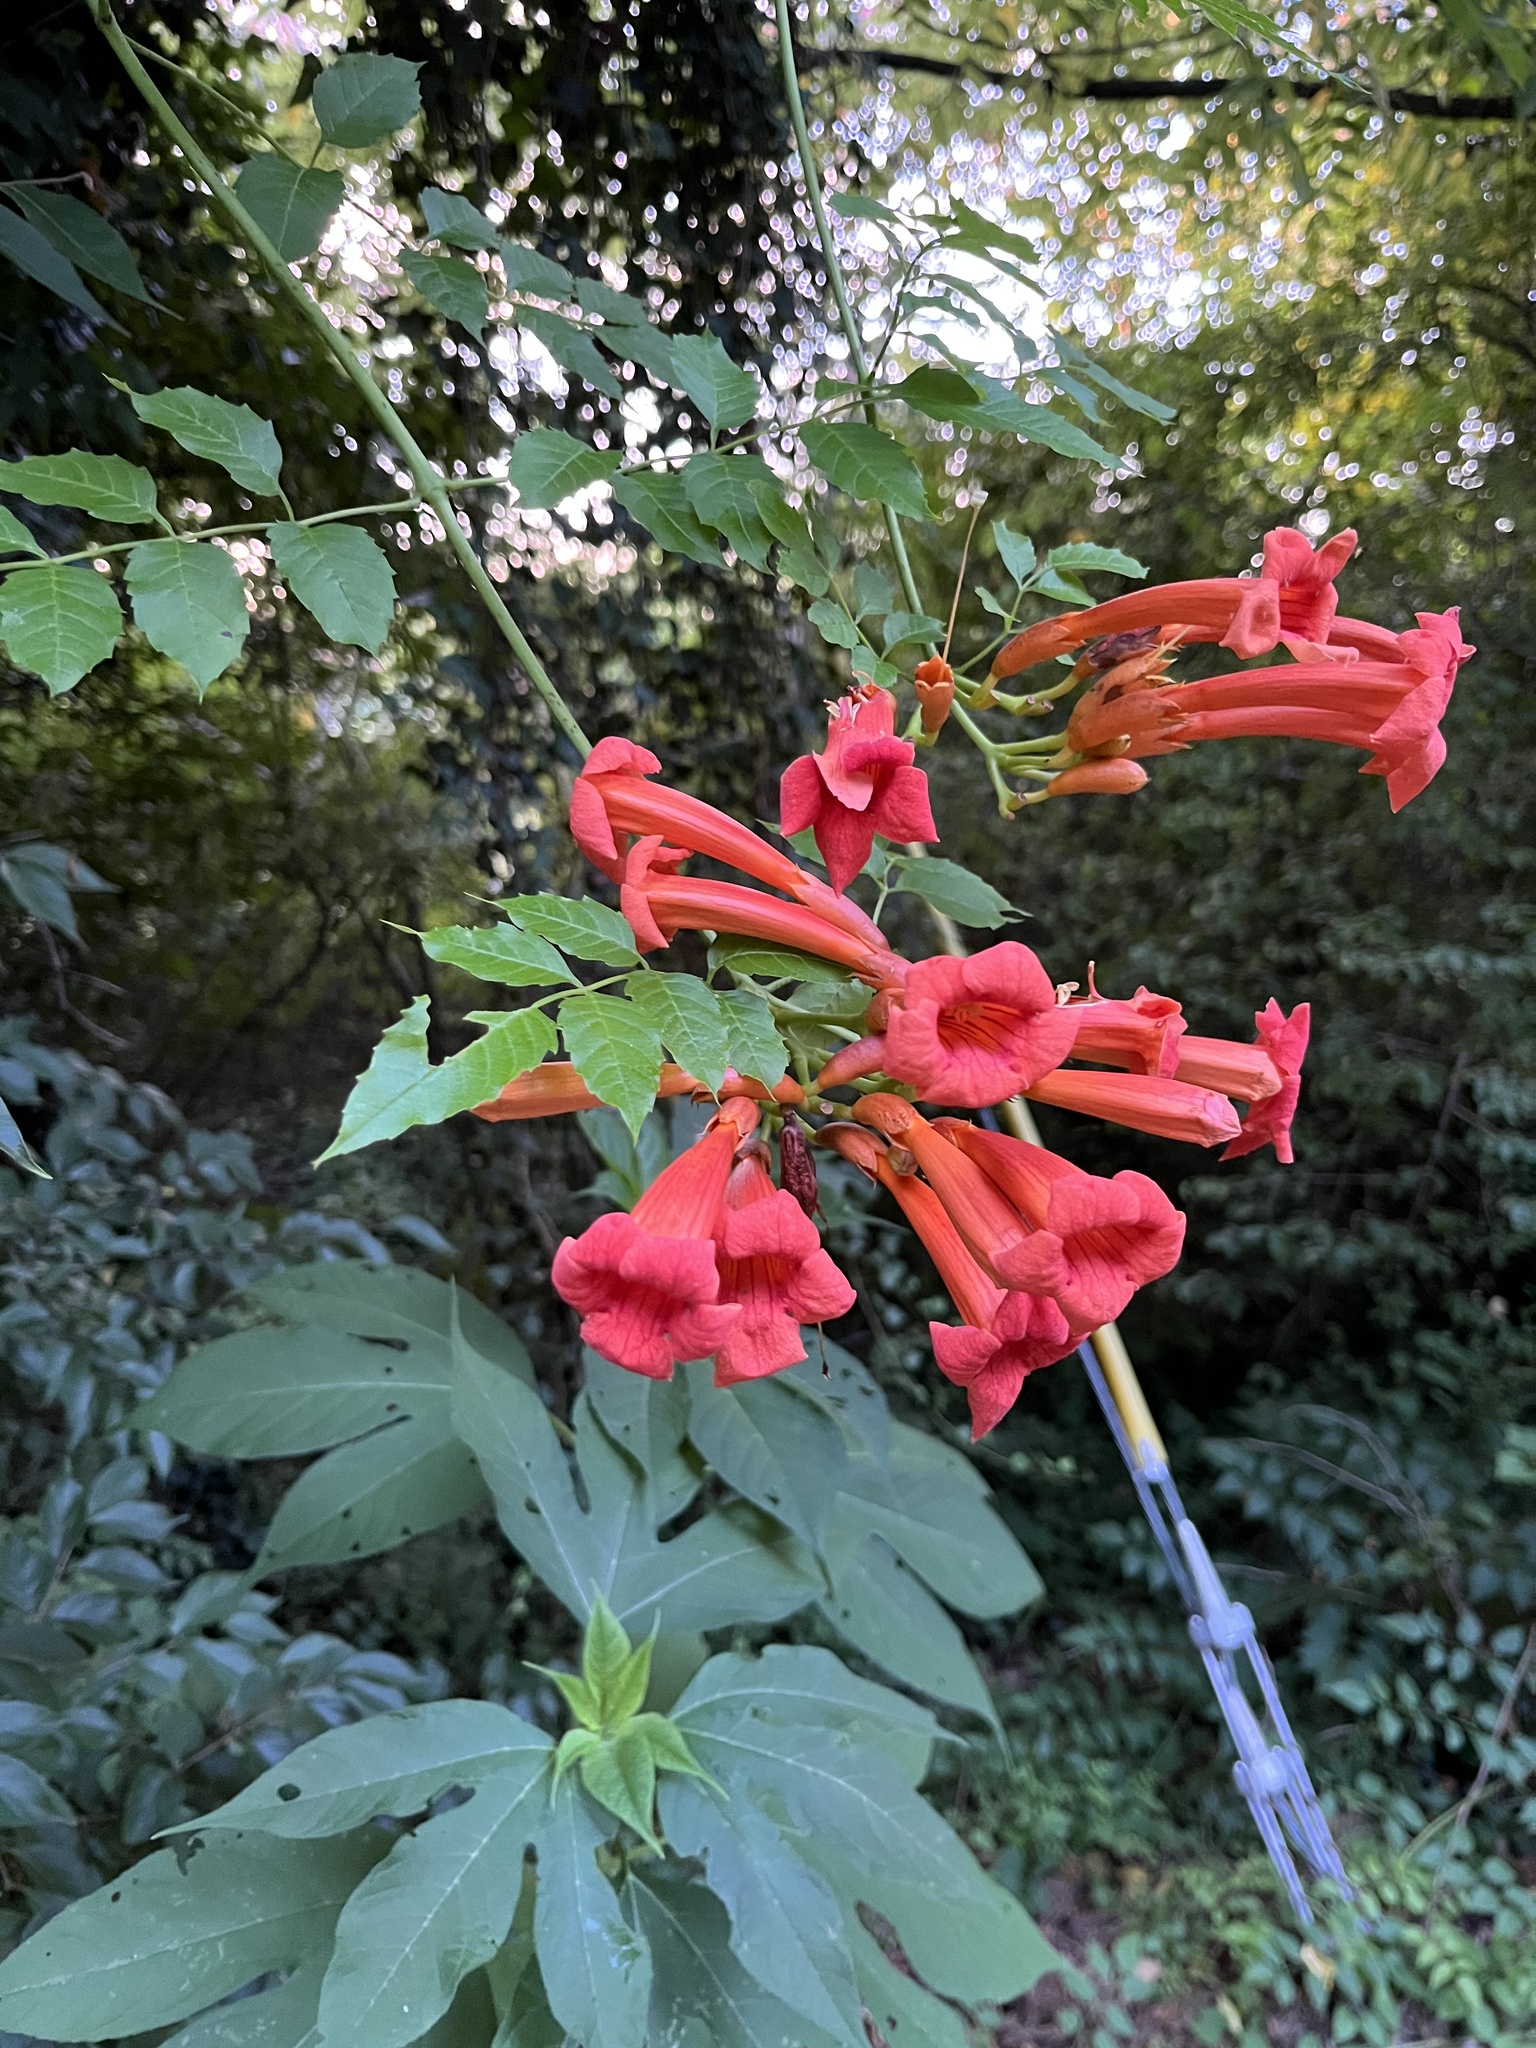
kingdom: Plantae
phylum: Tracheophyta
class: Magnoliopsida
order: Lamiales
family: Bignoniaceae
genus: Campsis
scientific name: Campsis radicans
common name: Trumpet-creeper
